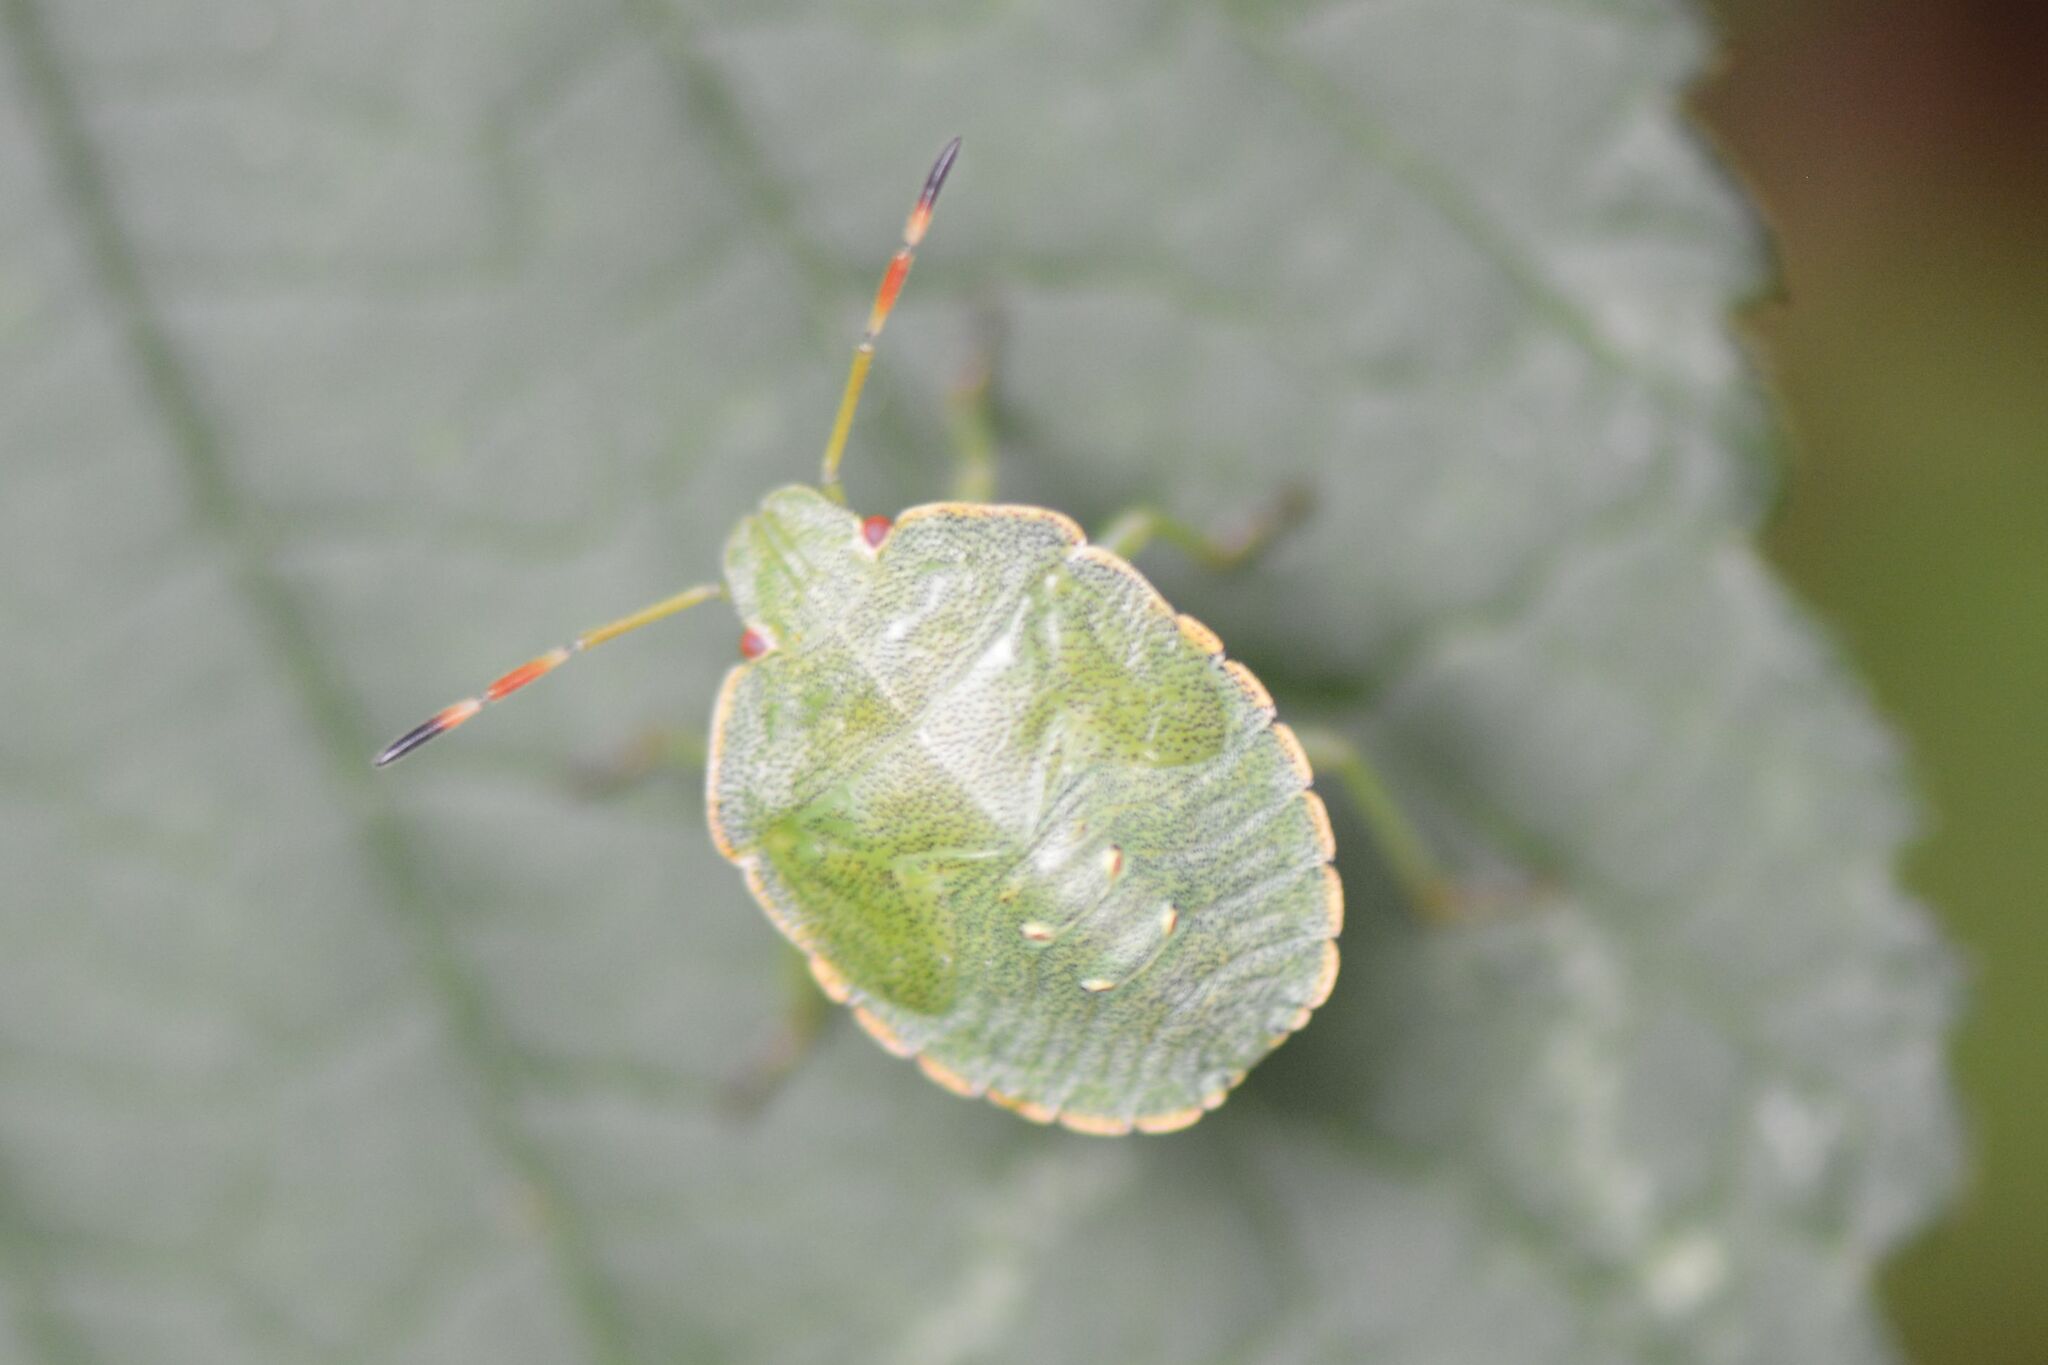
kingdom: Animalia
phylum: Arthropoda
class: Insecta
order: Hemiptera
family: Pentatomidae
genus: Palomena
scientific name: Palomena prasina
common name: Green shieldbug
